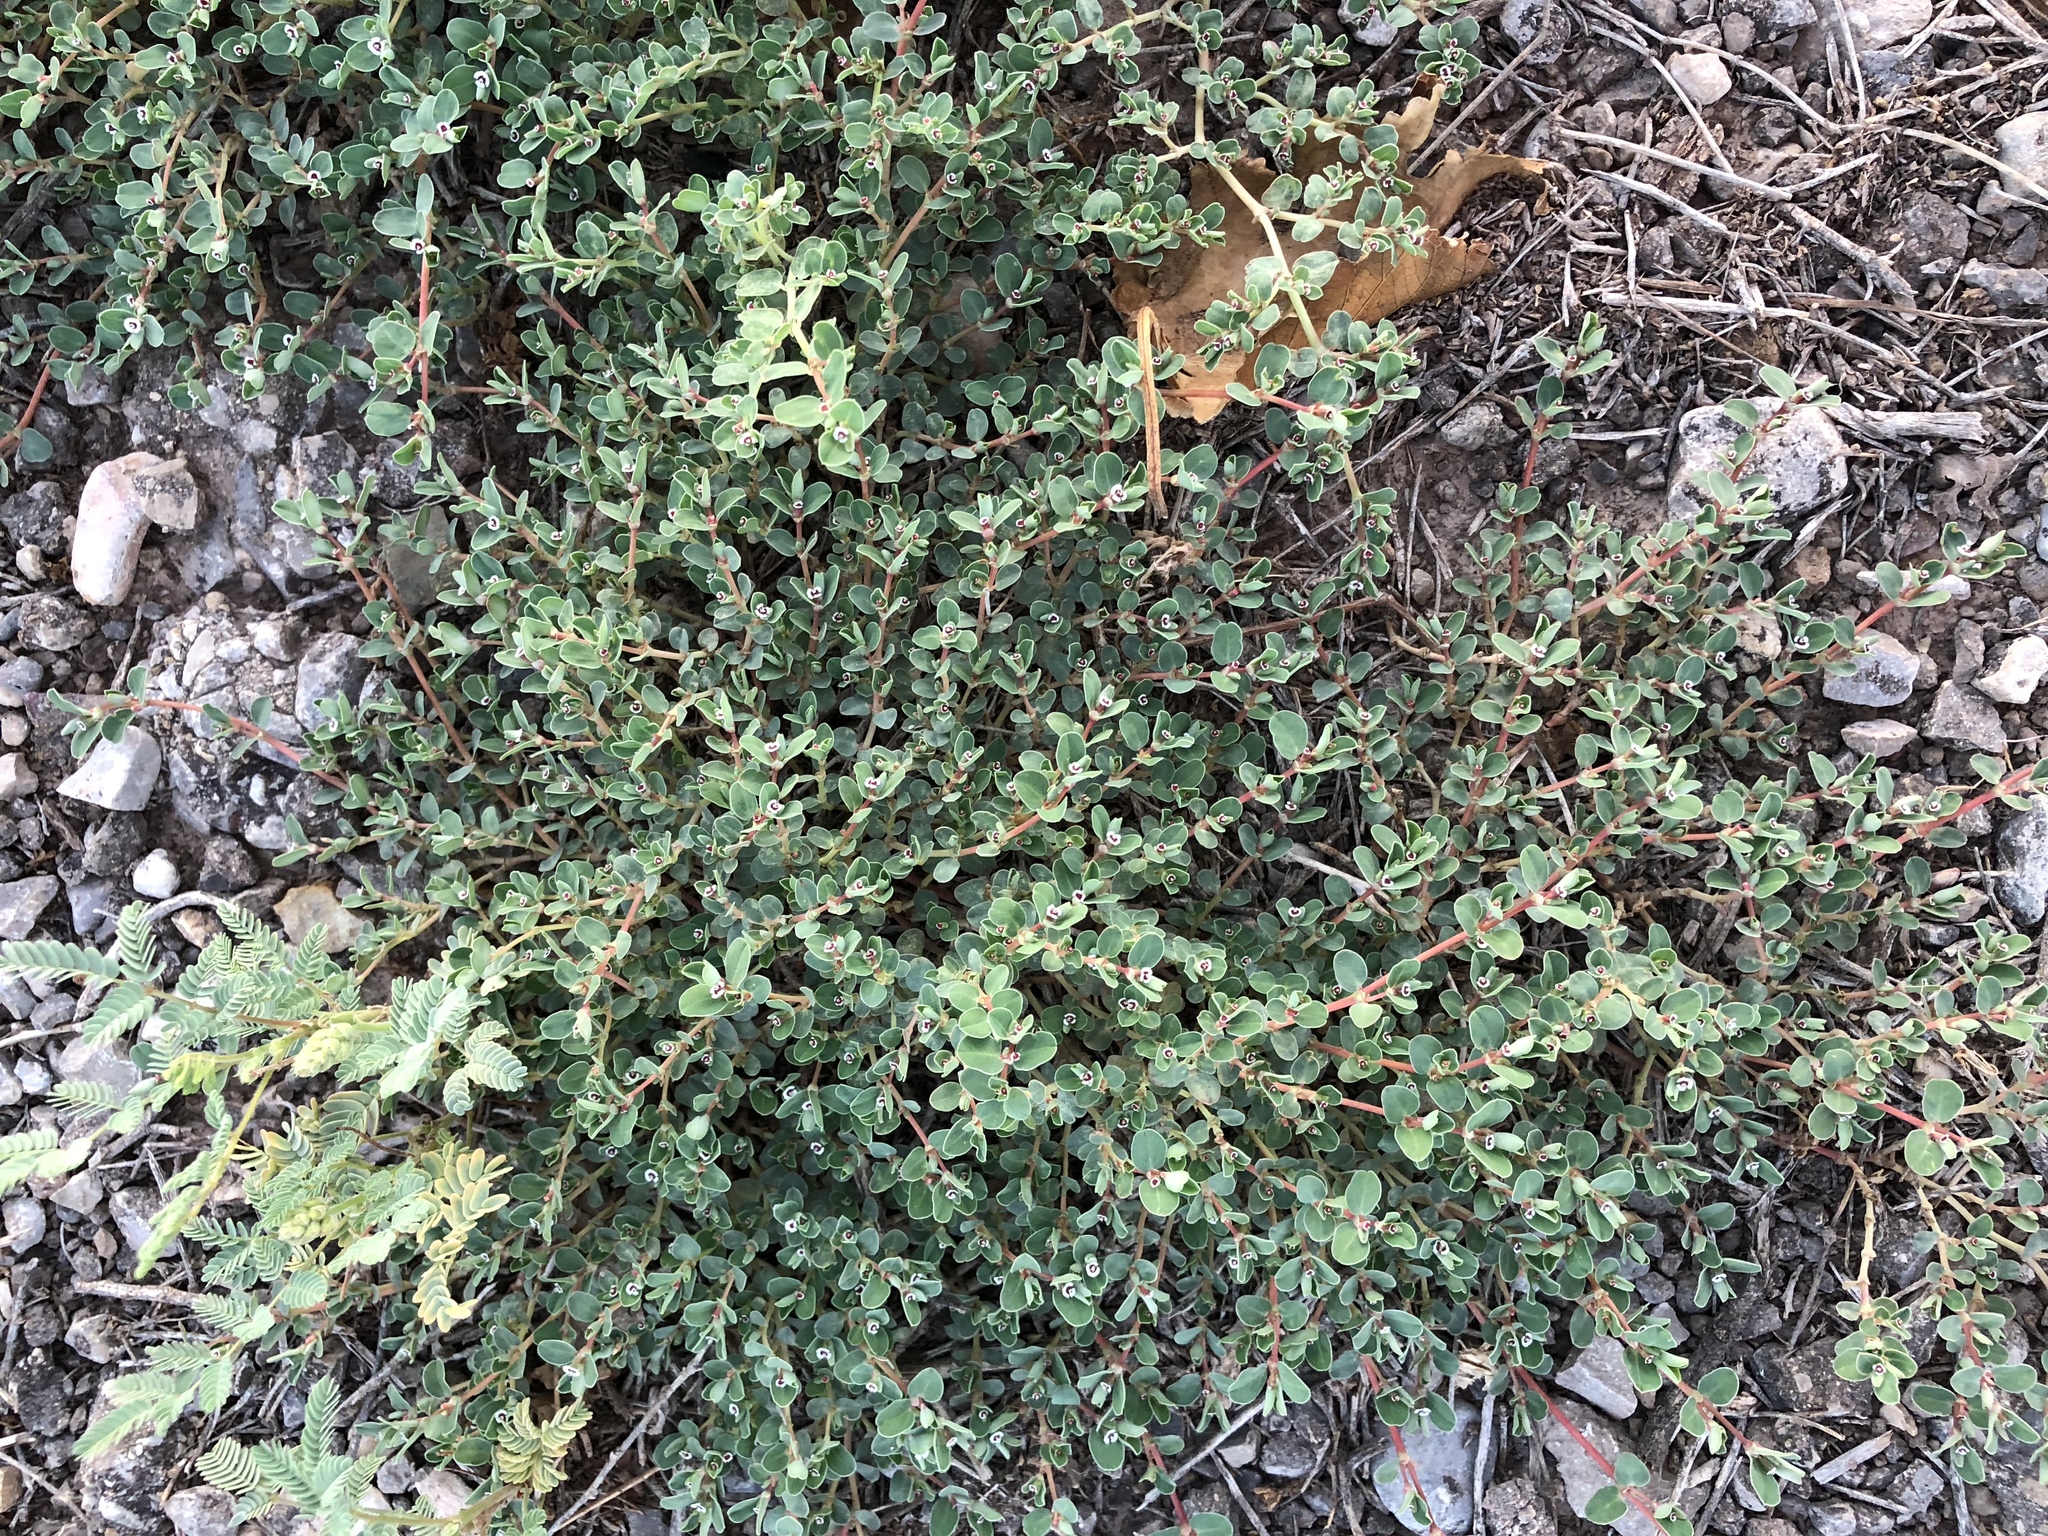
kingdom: Plantae
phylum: Tracheophyta
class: Magnoliopsida
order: Malpighiales
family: Euphorbiaceae
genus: Euphorbia
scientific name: Euphorbia albomarginata
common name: Whitemargin sandmat
